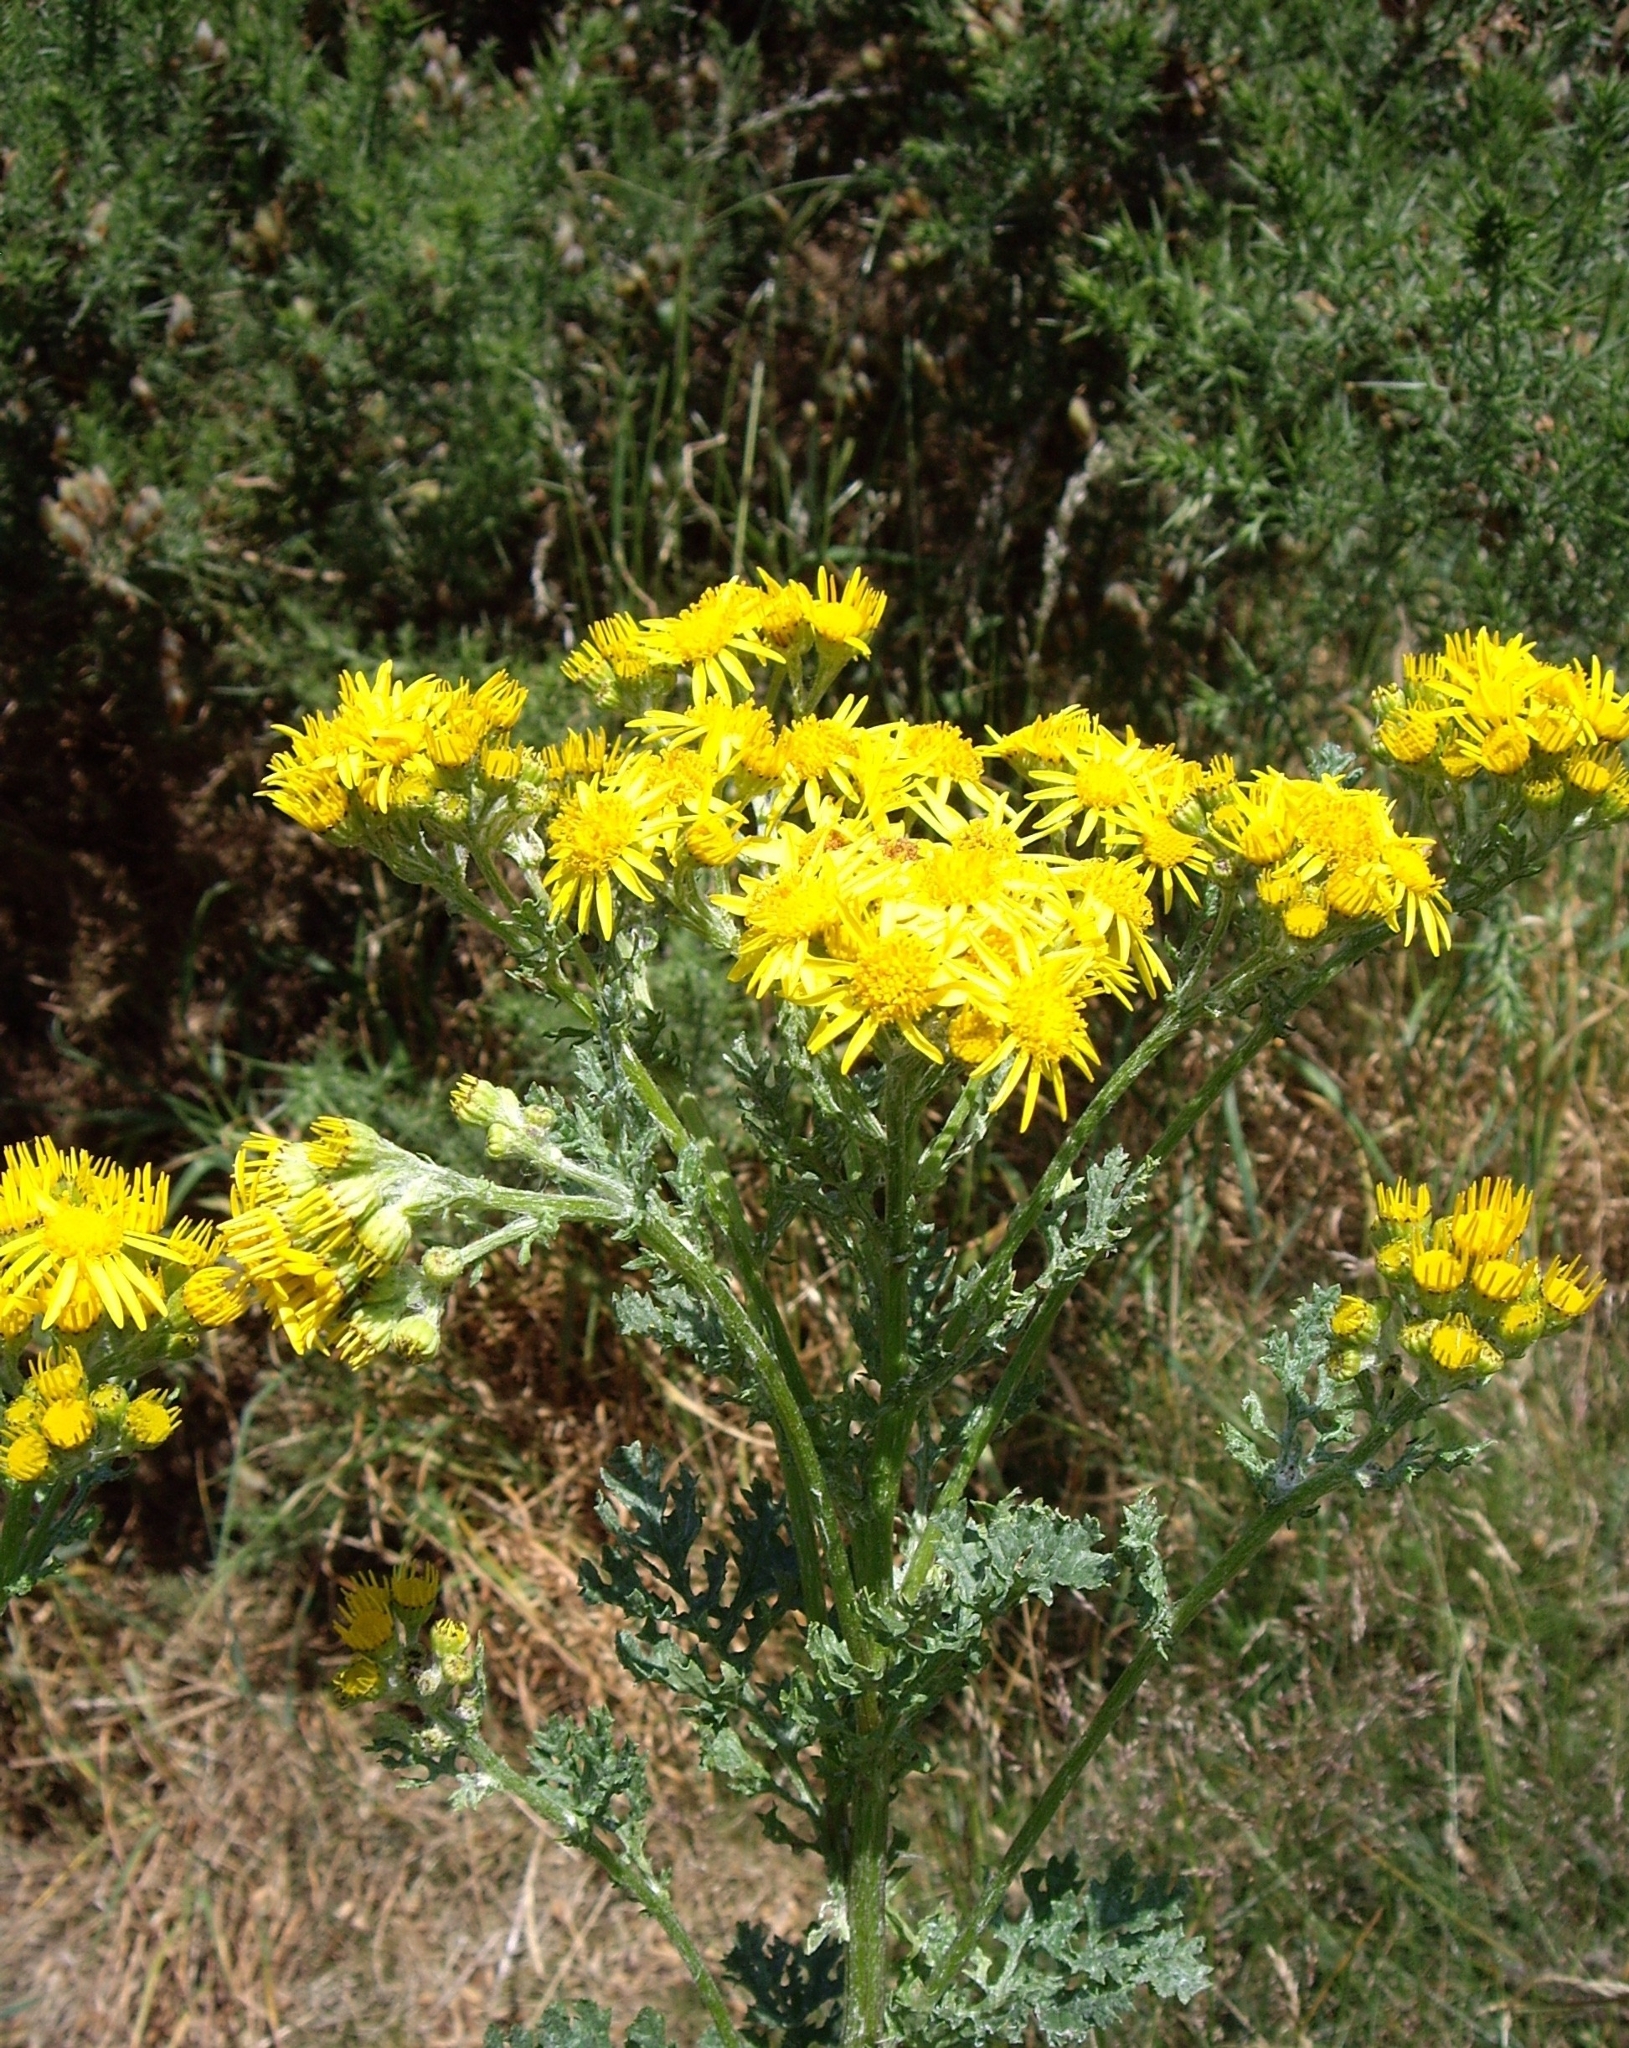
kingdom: Plantae
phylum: Tracheophyta
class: Magnoliopsida
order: Asterales
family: Asteraceae
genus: Jacobaea
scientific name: Jacobaea vulgaris
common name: Stinking willie
